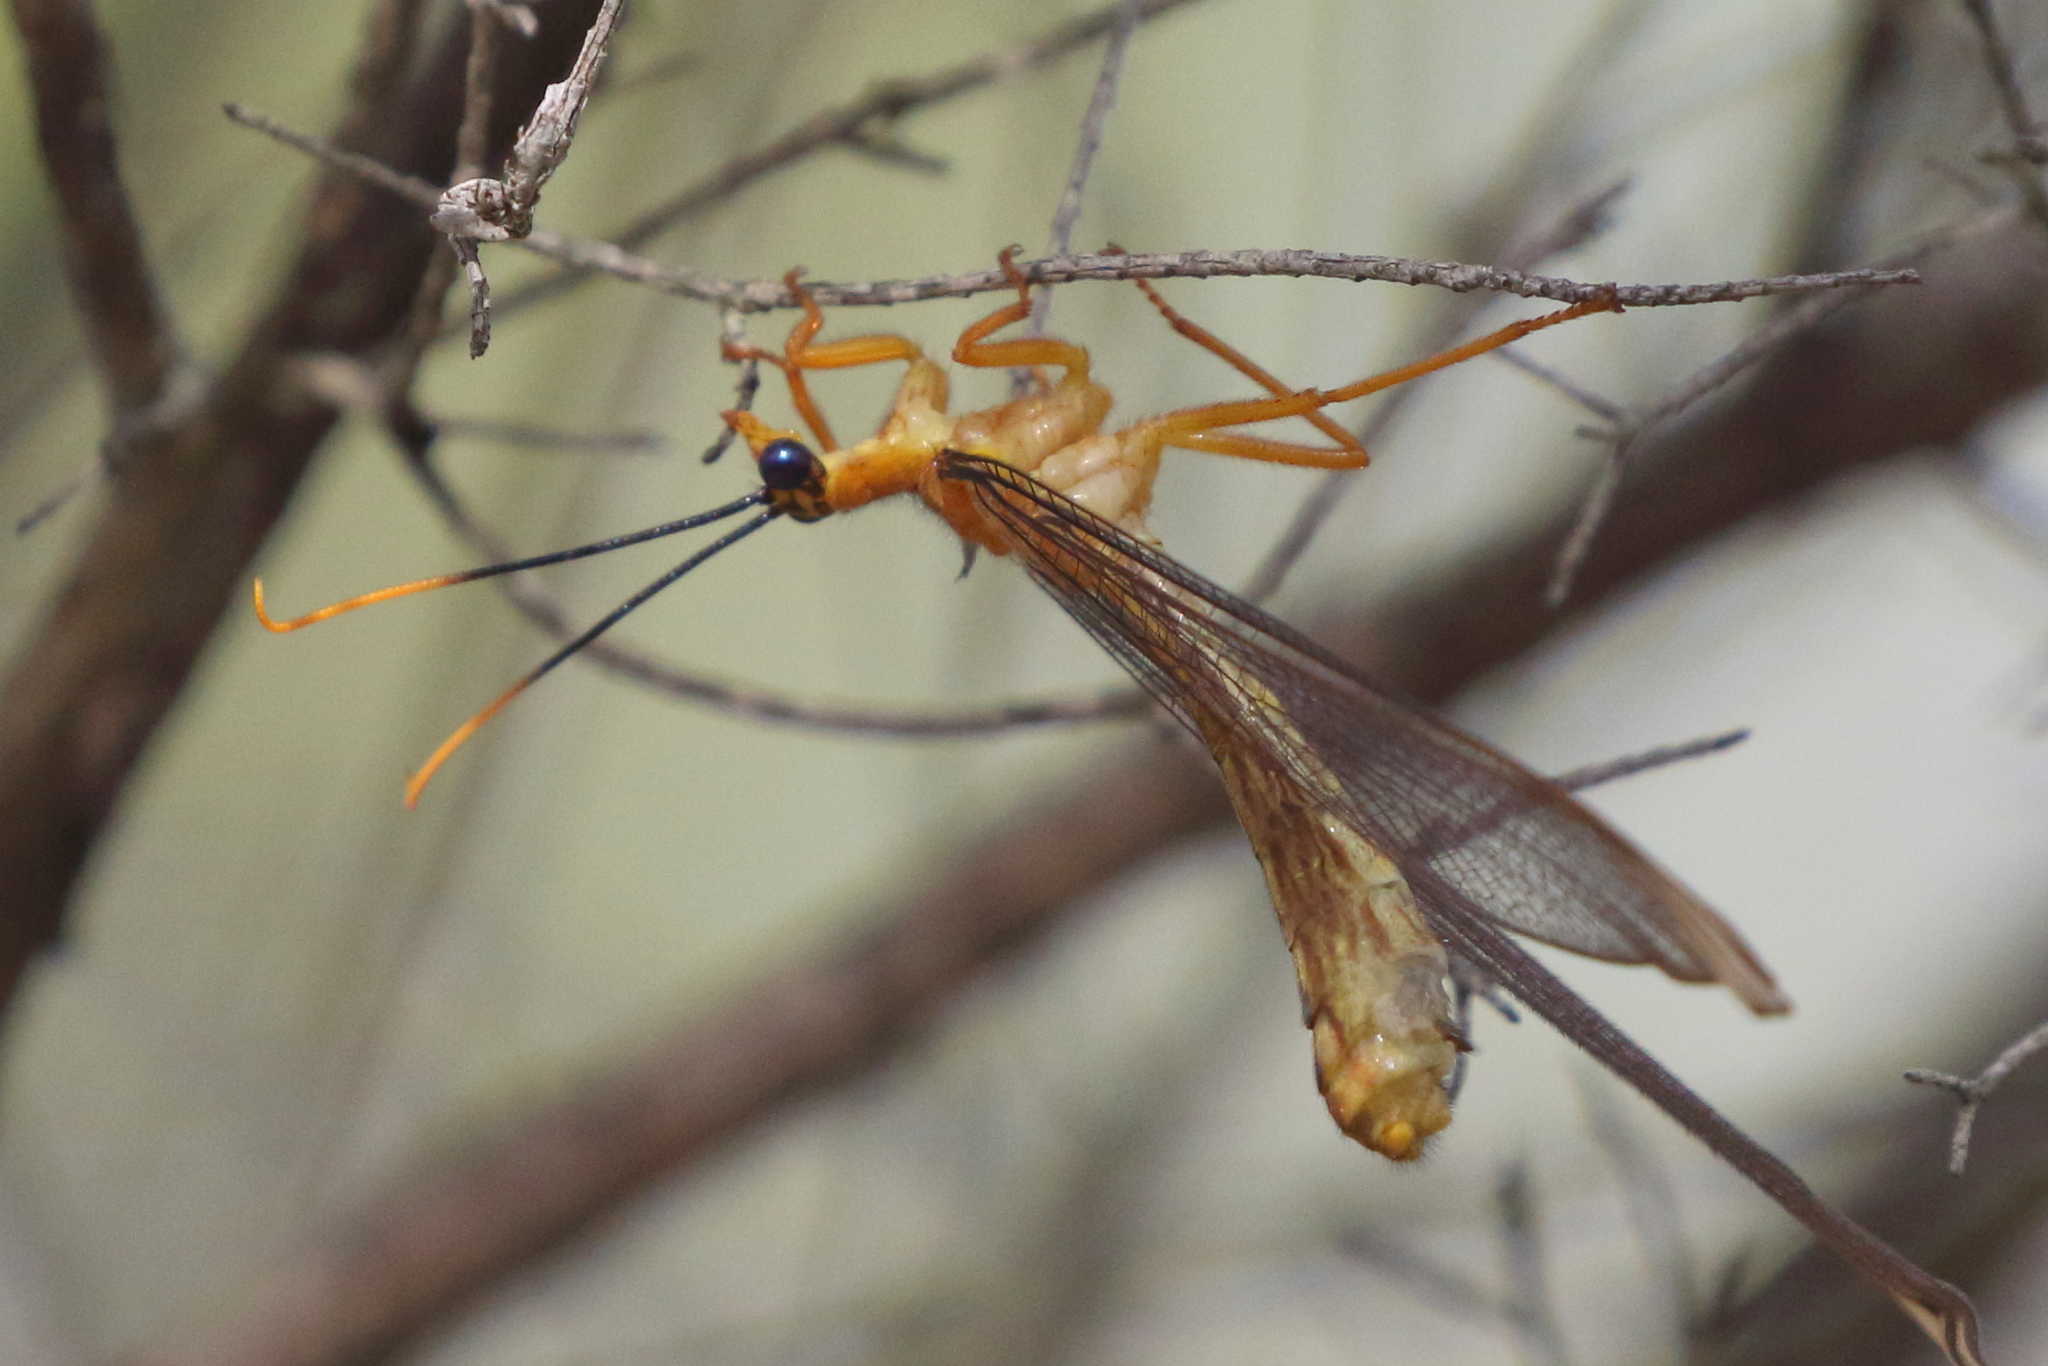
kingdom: Animalia
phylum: Arthropoda
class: Insecta
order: Neuroptera
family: Nymphidae
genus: Nymphes
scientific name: Nymphes myrmeleonoides
